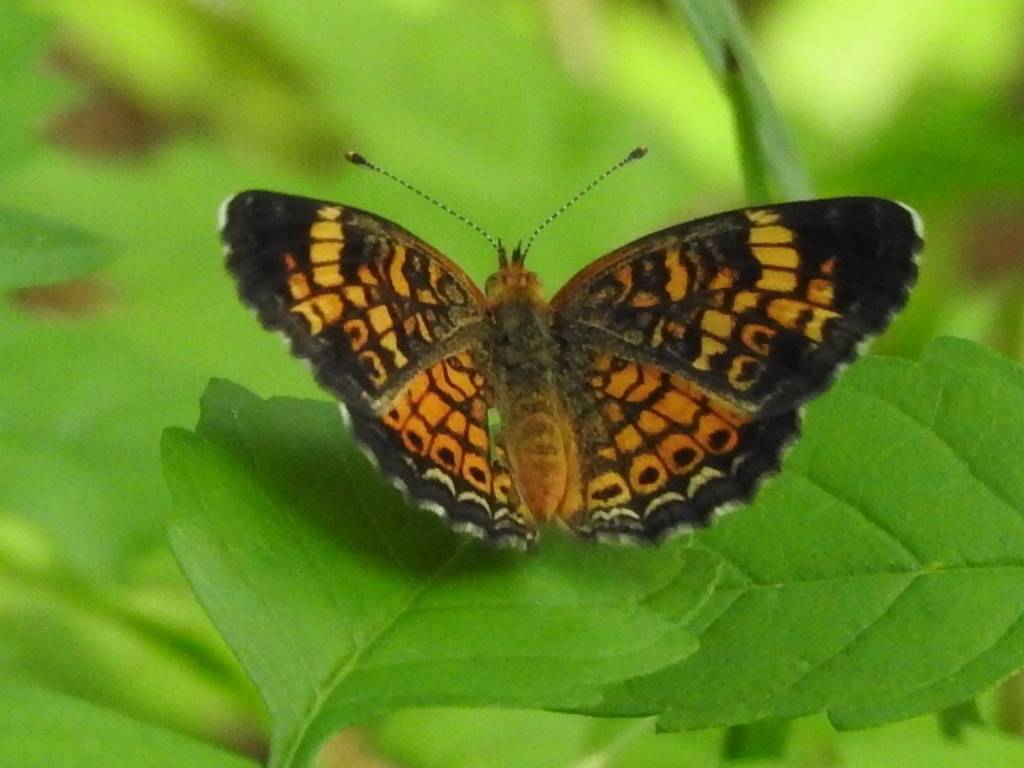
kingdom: Animalia
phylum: Arthropoda
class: Insecta
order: Lepidoptera
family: Nymphalidae
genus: Phyciodes
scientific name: Phyciodes tharos
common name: Pearl crescent
